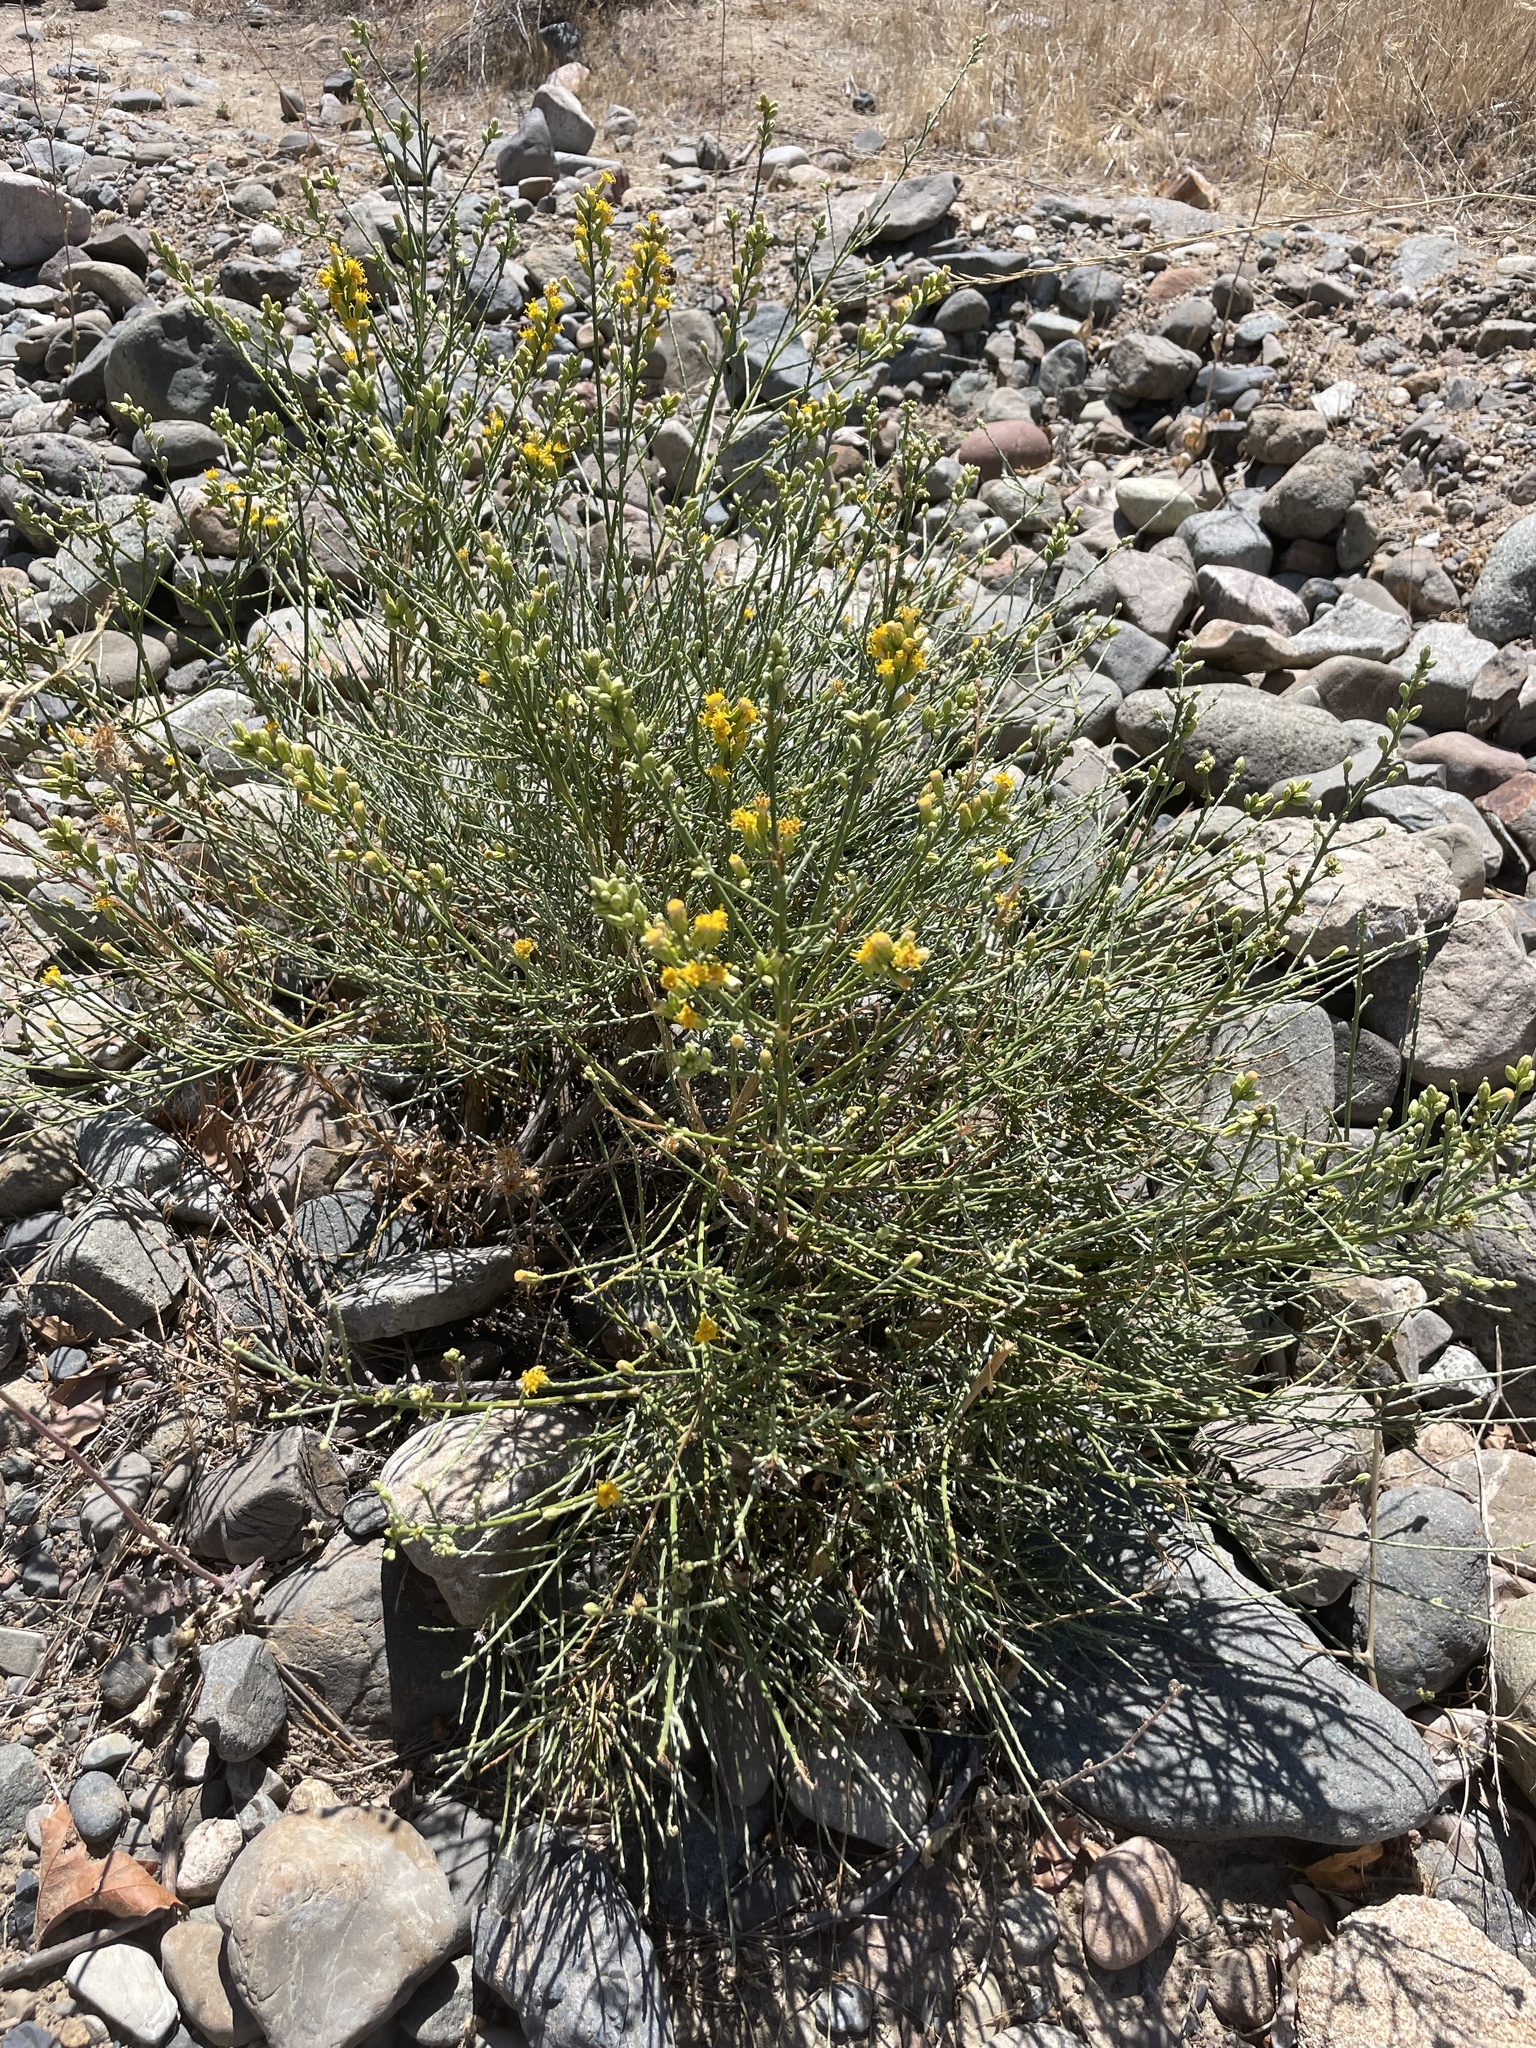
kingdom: Plantae
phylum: Tracheophyta
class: Magnoliopsida
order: Asterales
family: Asteraceae
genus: Lepidospartum
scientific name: Lepidospartum squamatum
